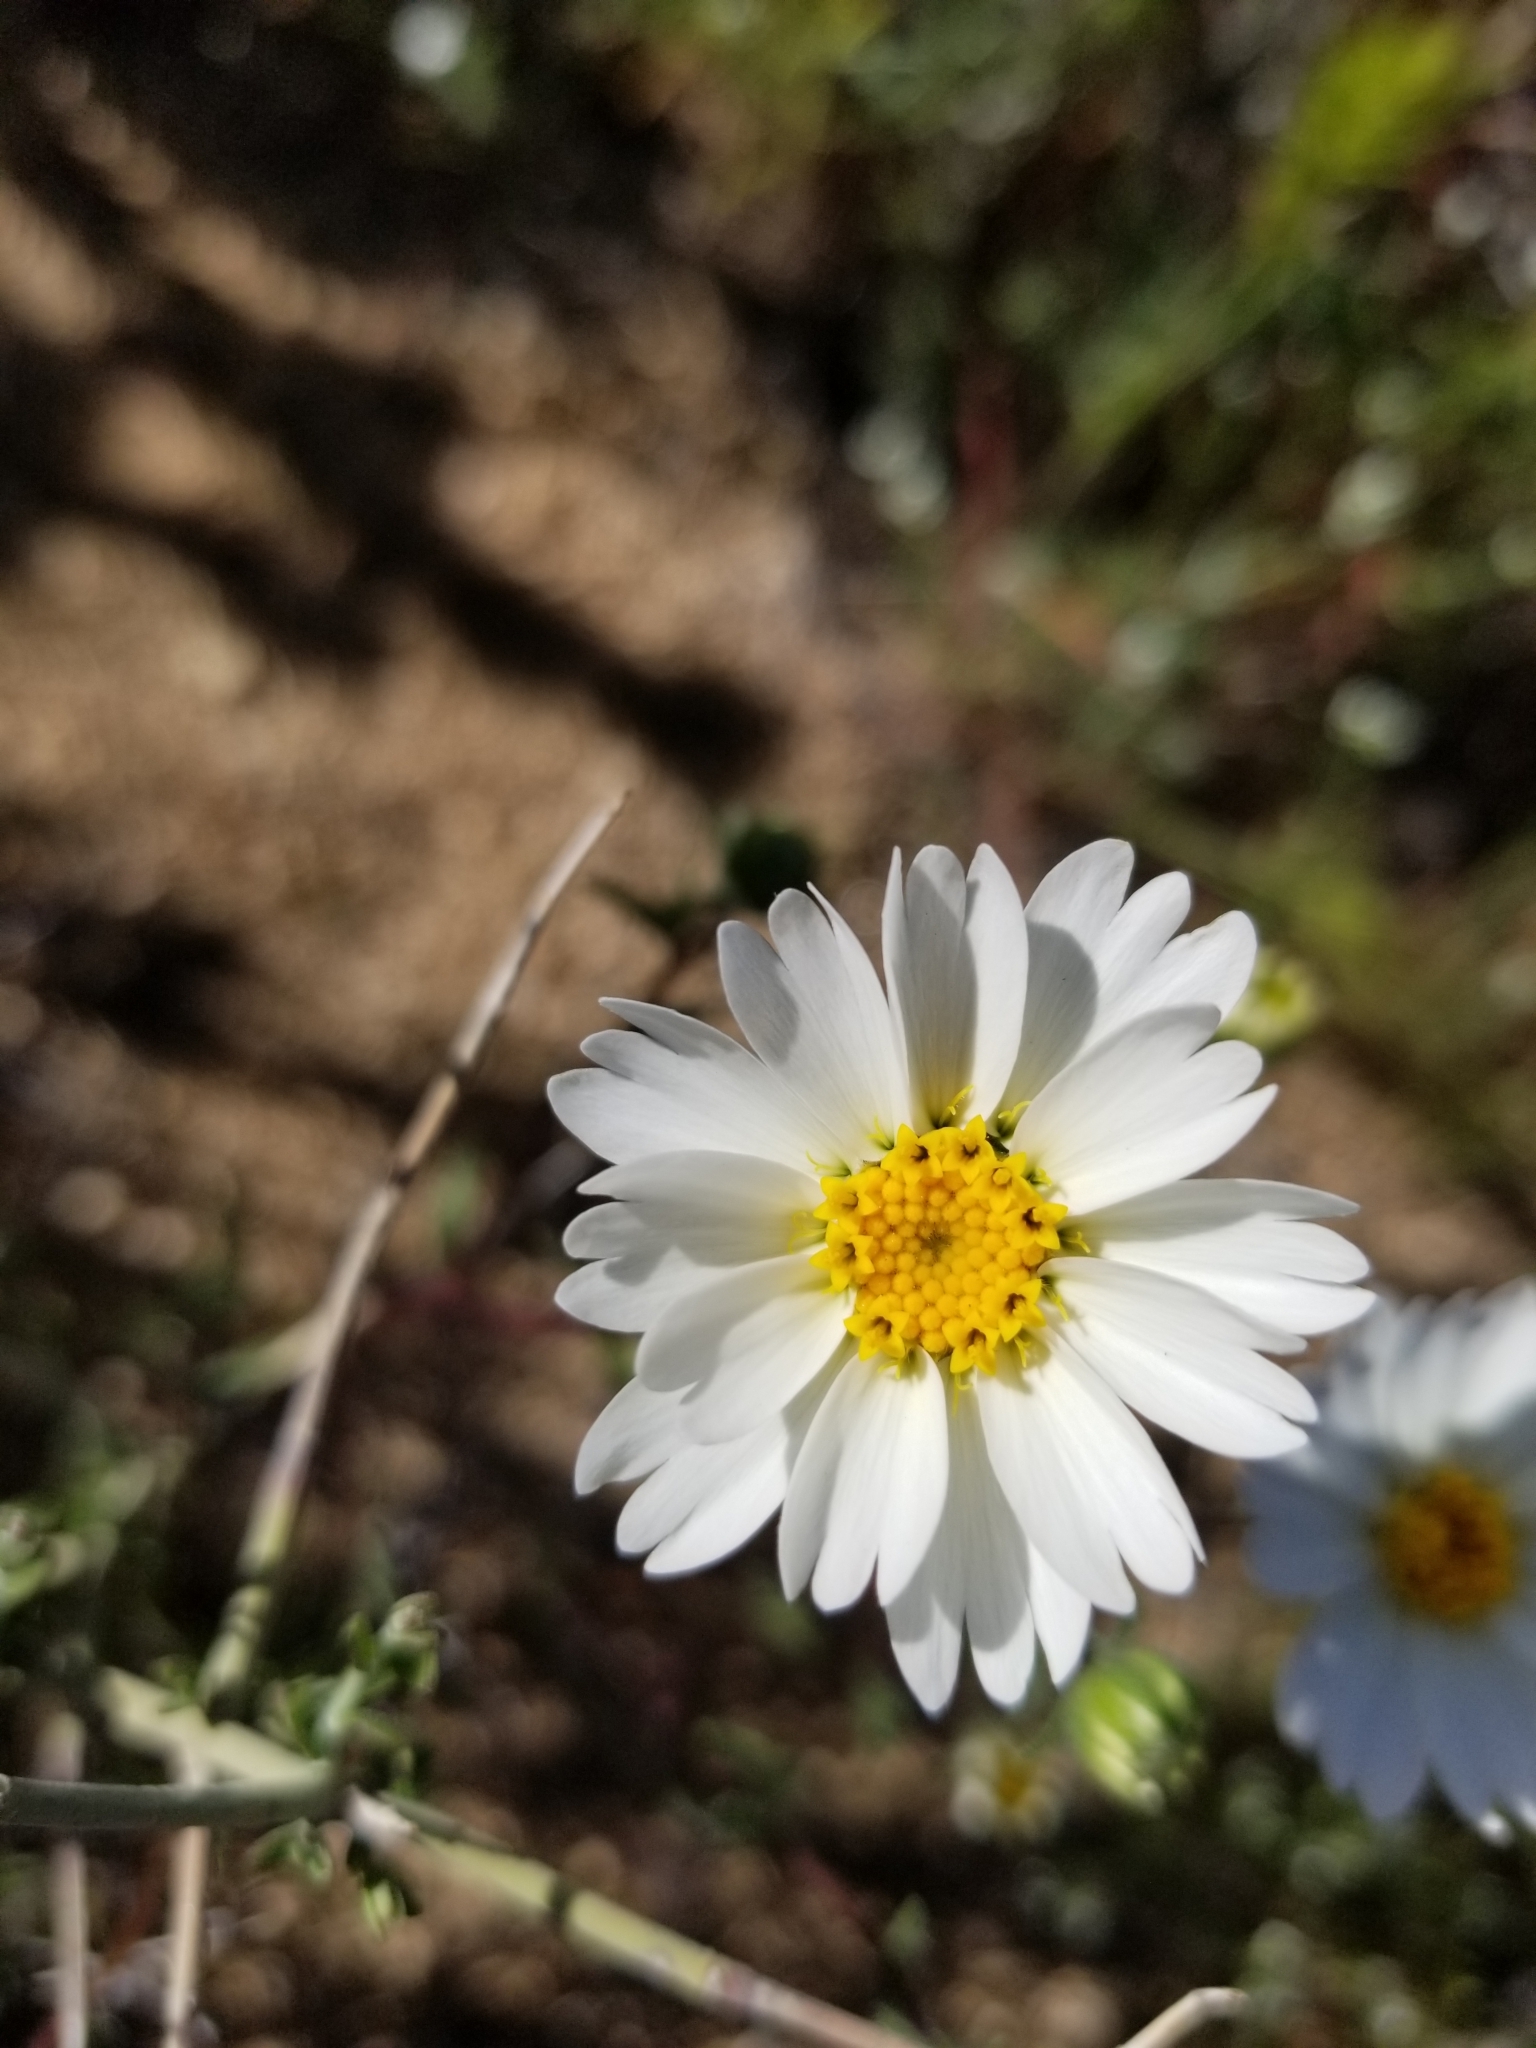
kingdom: Plantae
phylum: Tracheophyta
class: Magnoliopsida
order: Asterales
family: Asteraceae
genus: Layia
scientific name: Layia glandulosa
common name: White layia
